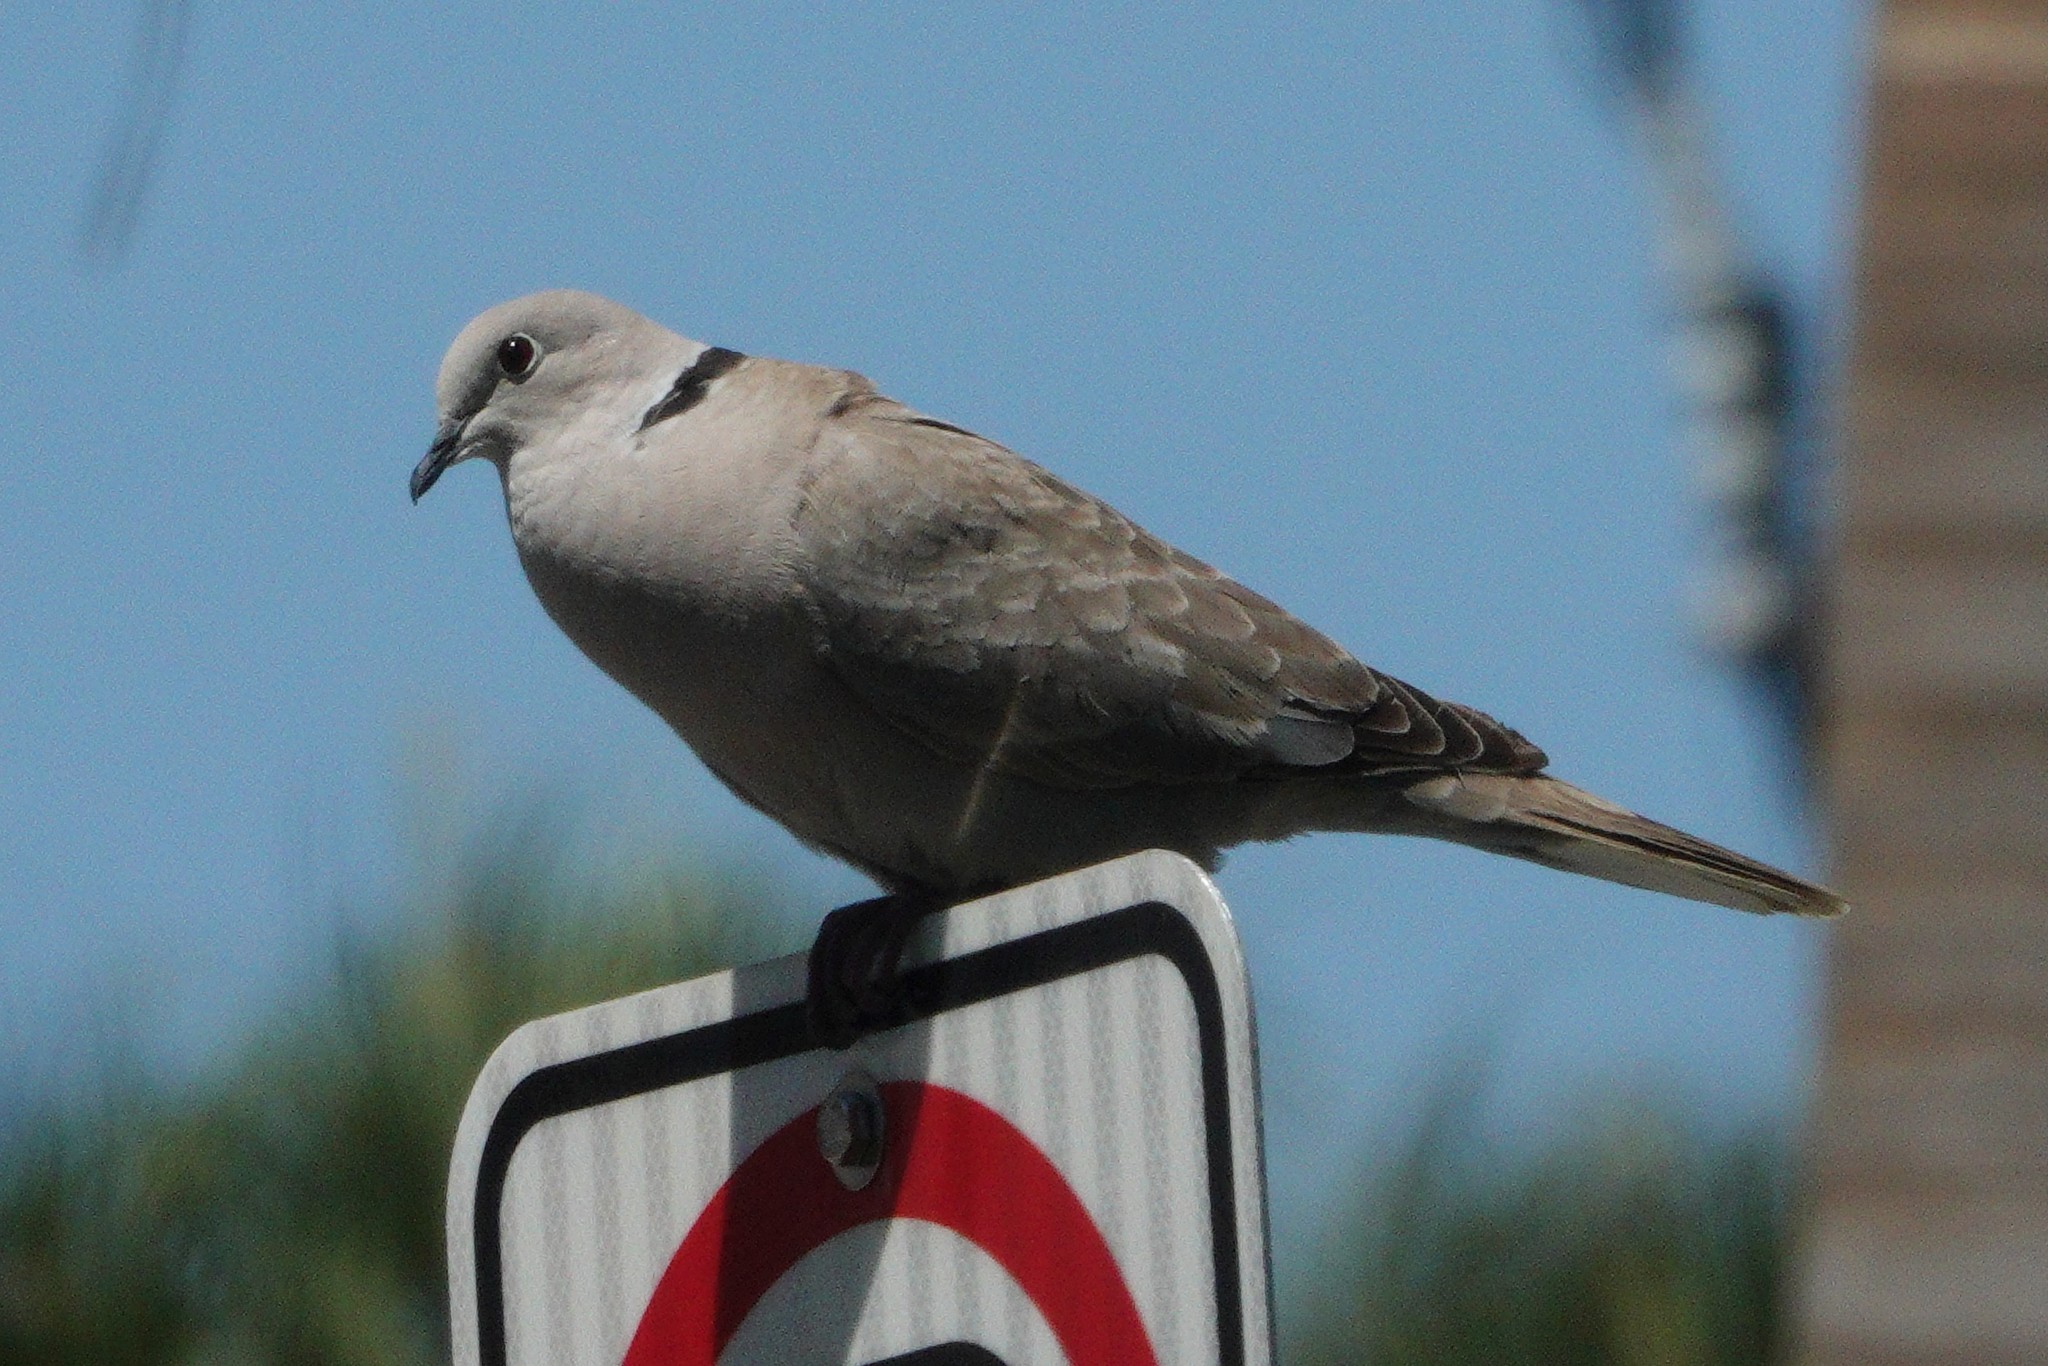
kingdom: Animalia
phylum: Chordata
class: Aves
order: Columbiformes
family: Columbidae
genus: Streptopelia
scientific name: Streptopelia decaocto
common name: Eurasian collared dove
